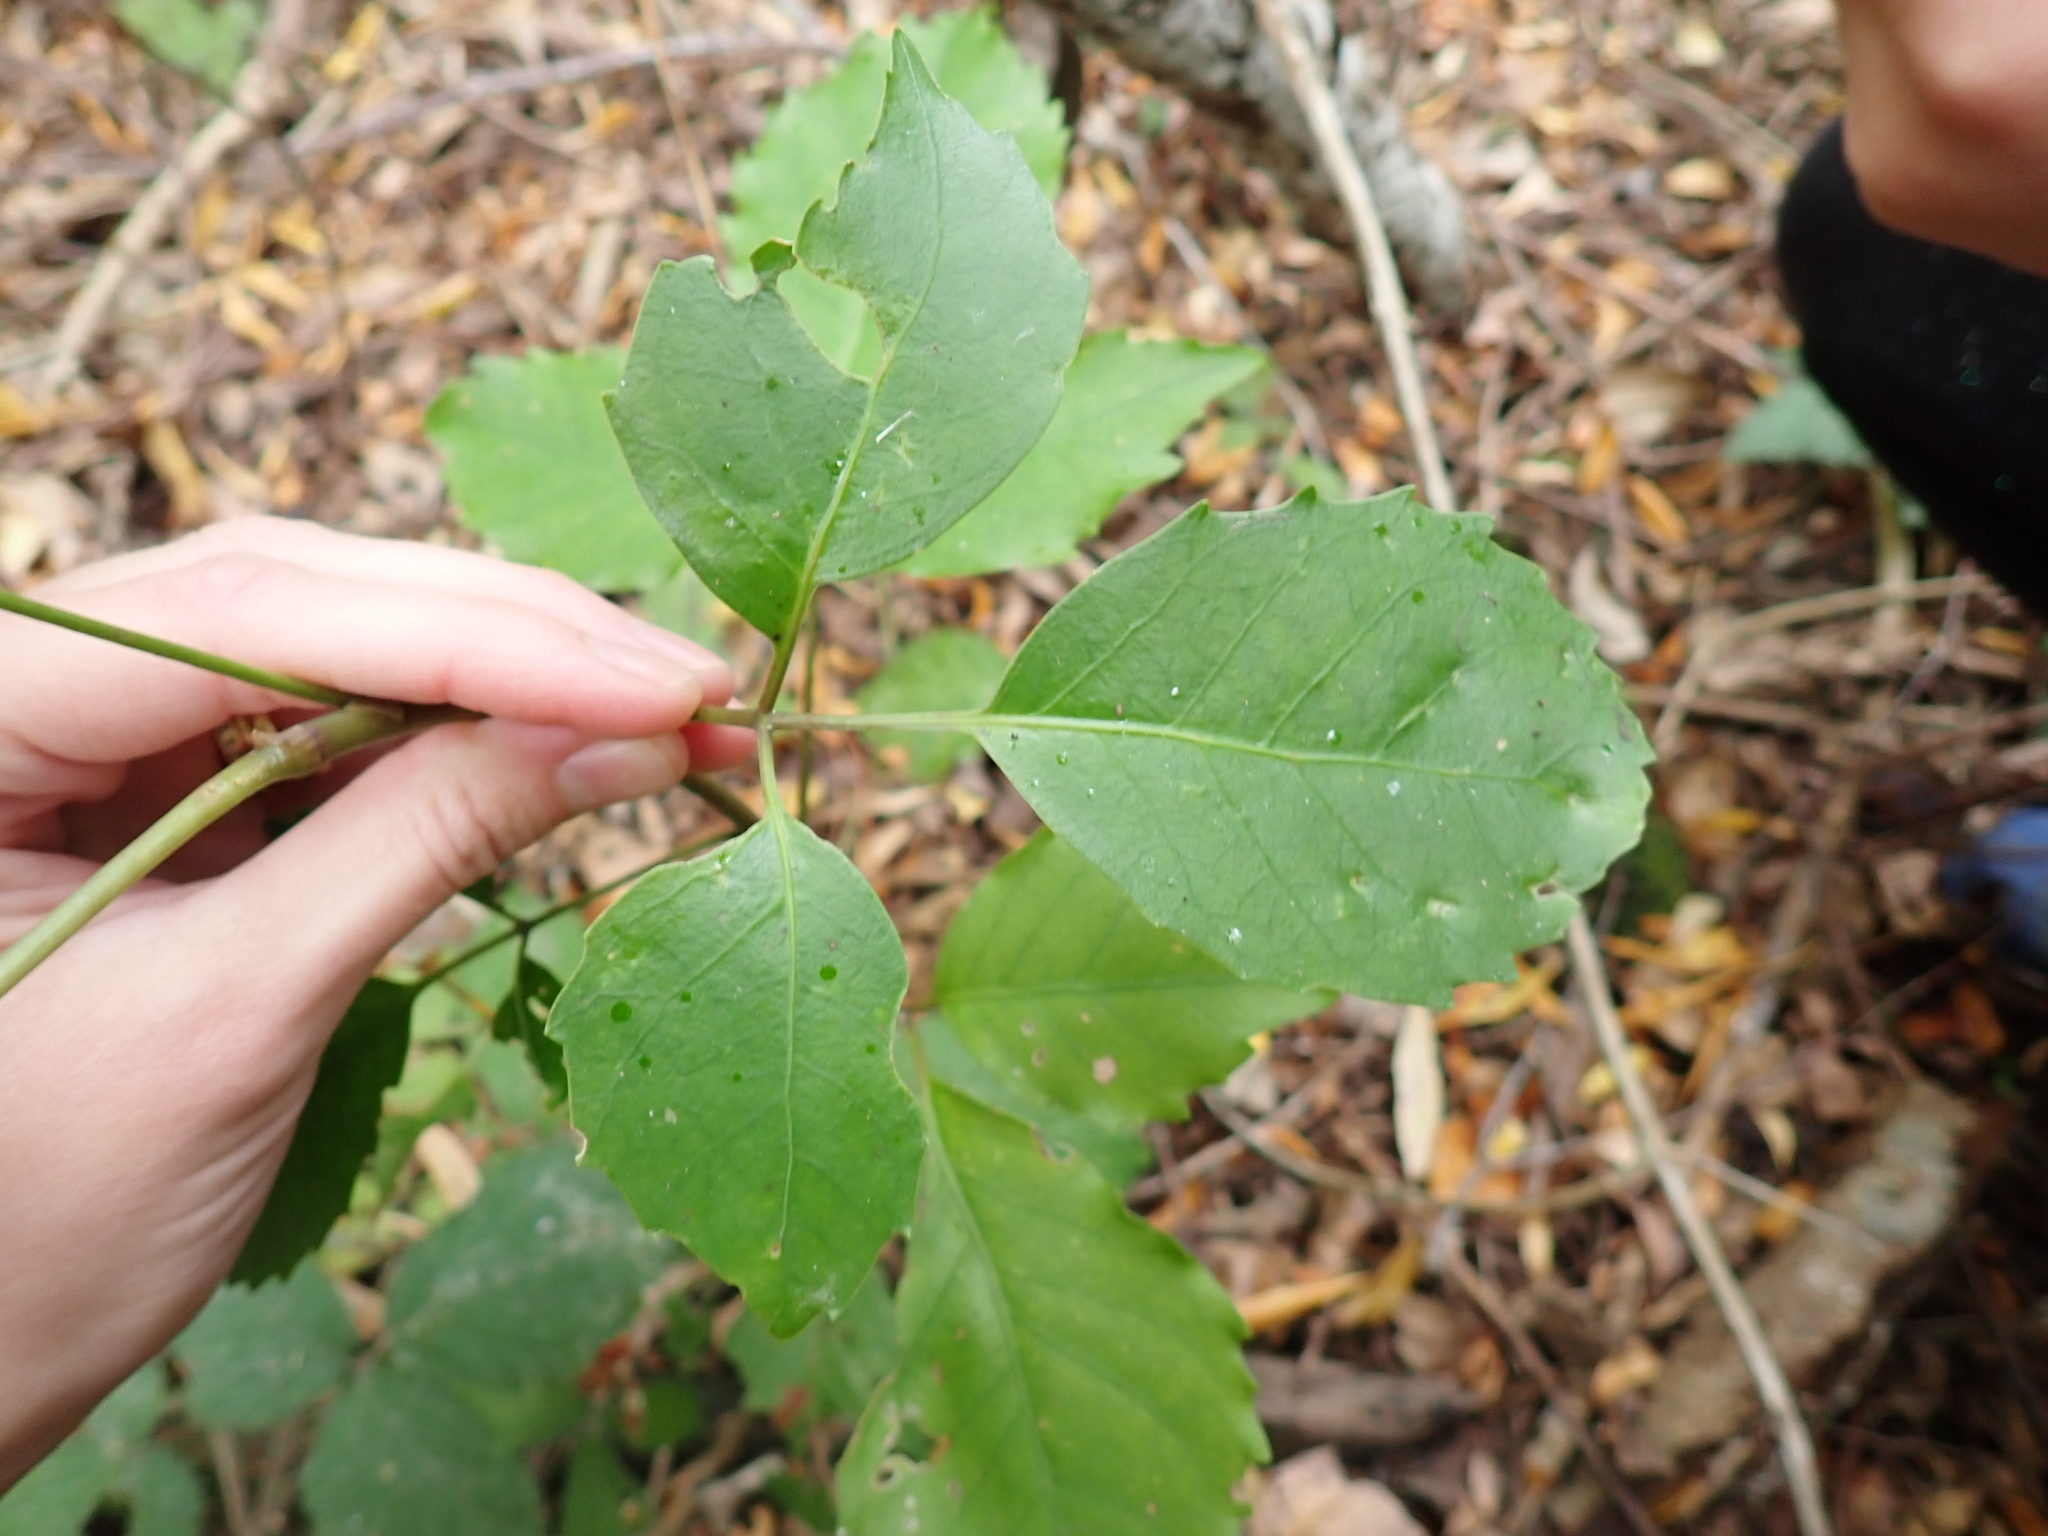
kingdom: Plantae
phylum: Tracheophyta
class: Magnoliopsida
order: Apiales
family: Araliaceae
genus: Neopanax
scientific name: Neopanax arboreus
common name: Five-fingers
